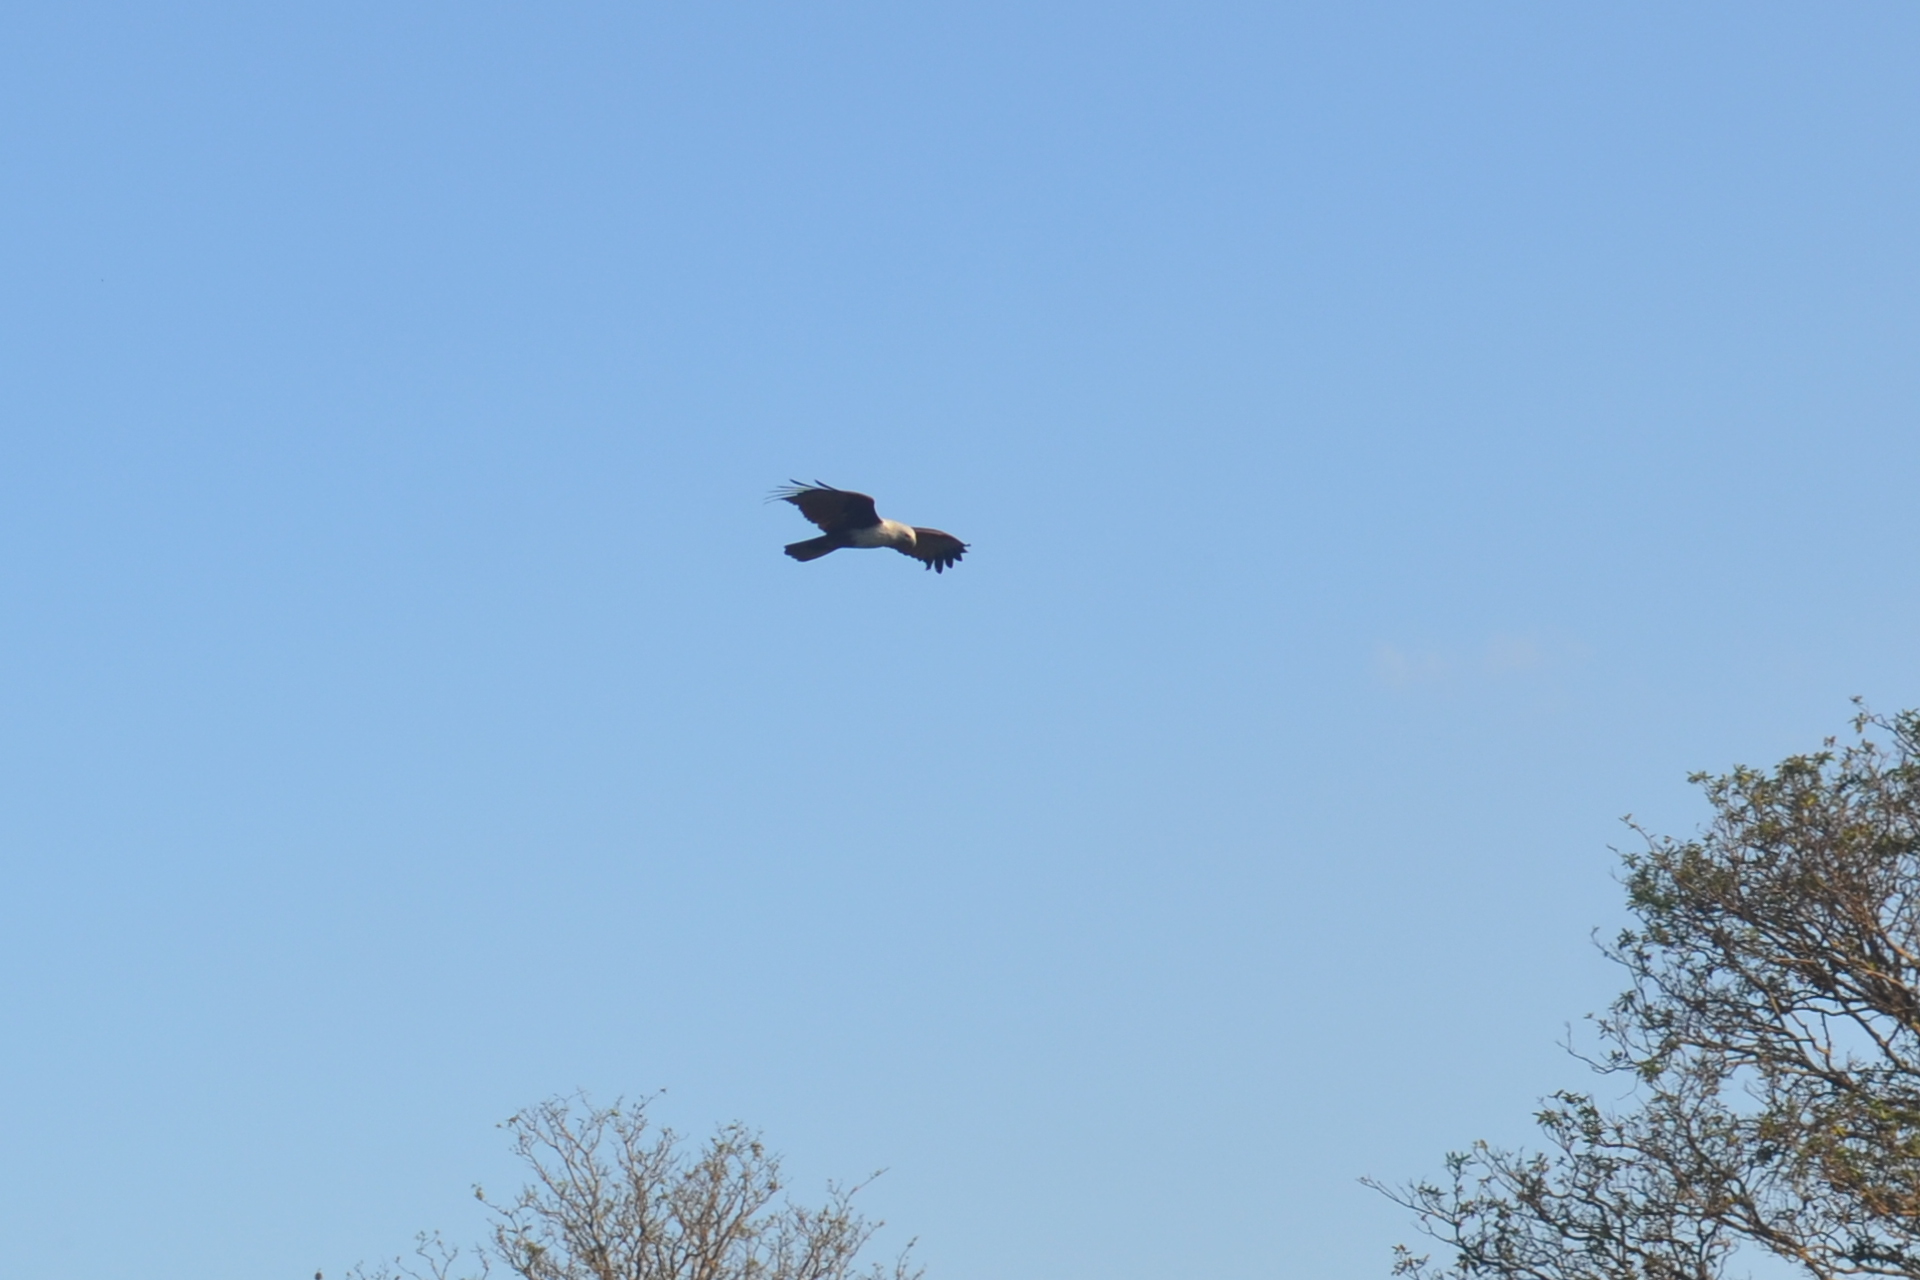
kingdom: Animalia
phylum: Chordata
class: Aves
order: Accipitriformes
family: Accipitridae
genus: Haliastur
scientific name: Haliastur indus
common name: Brahminy kite
